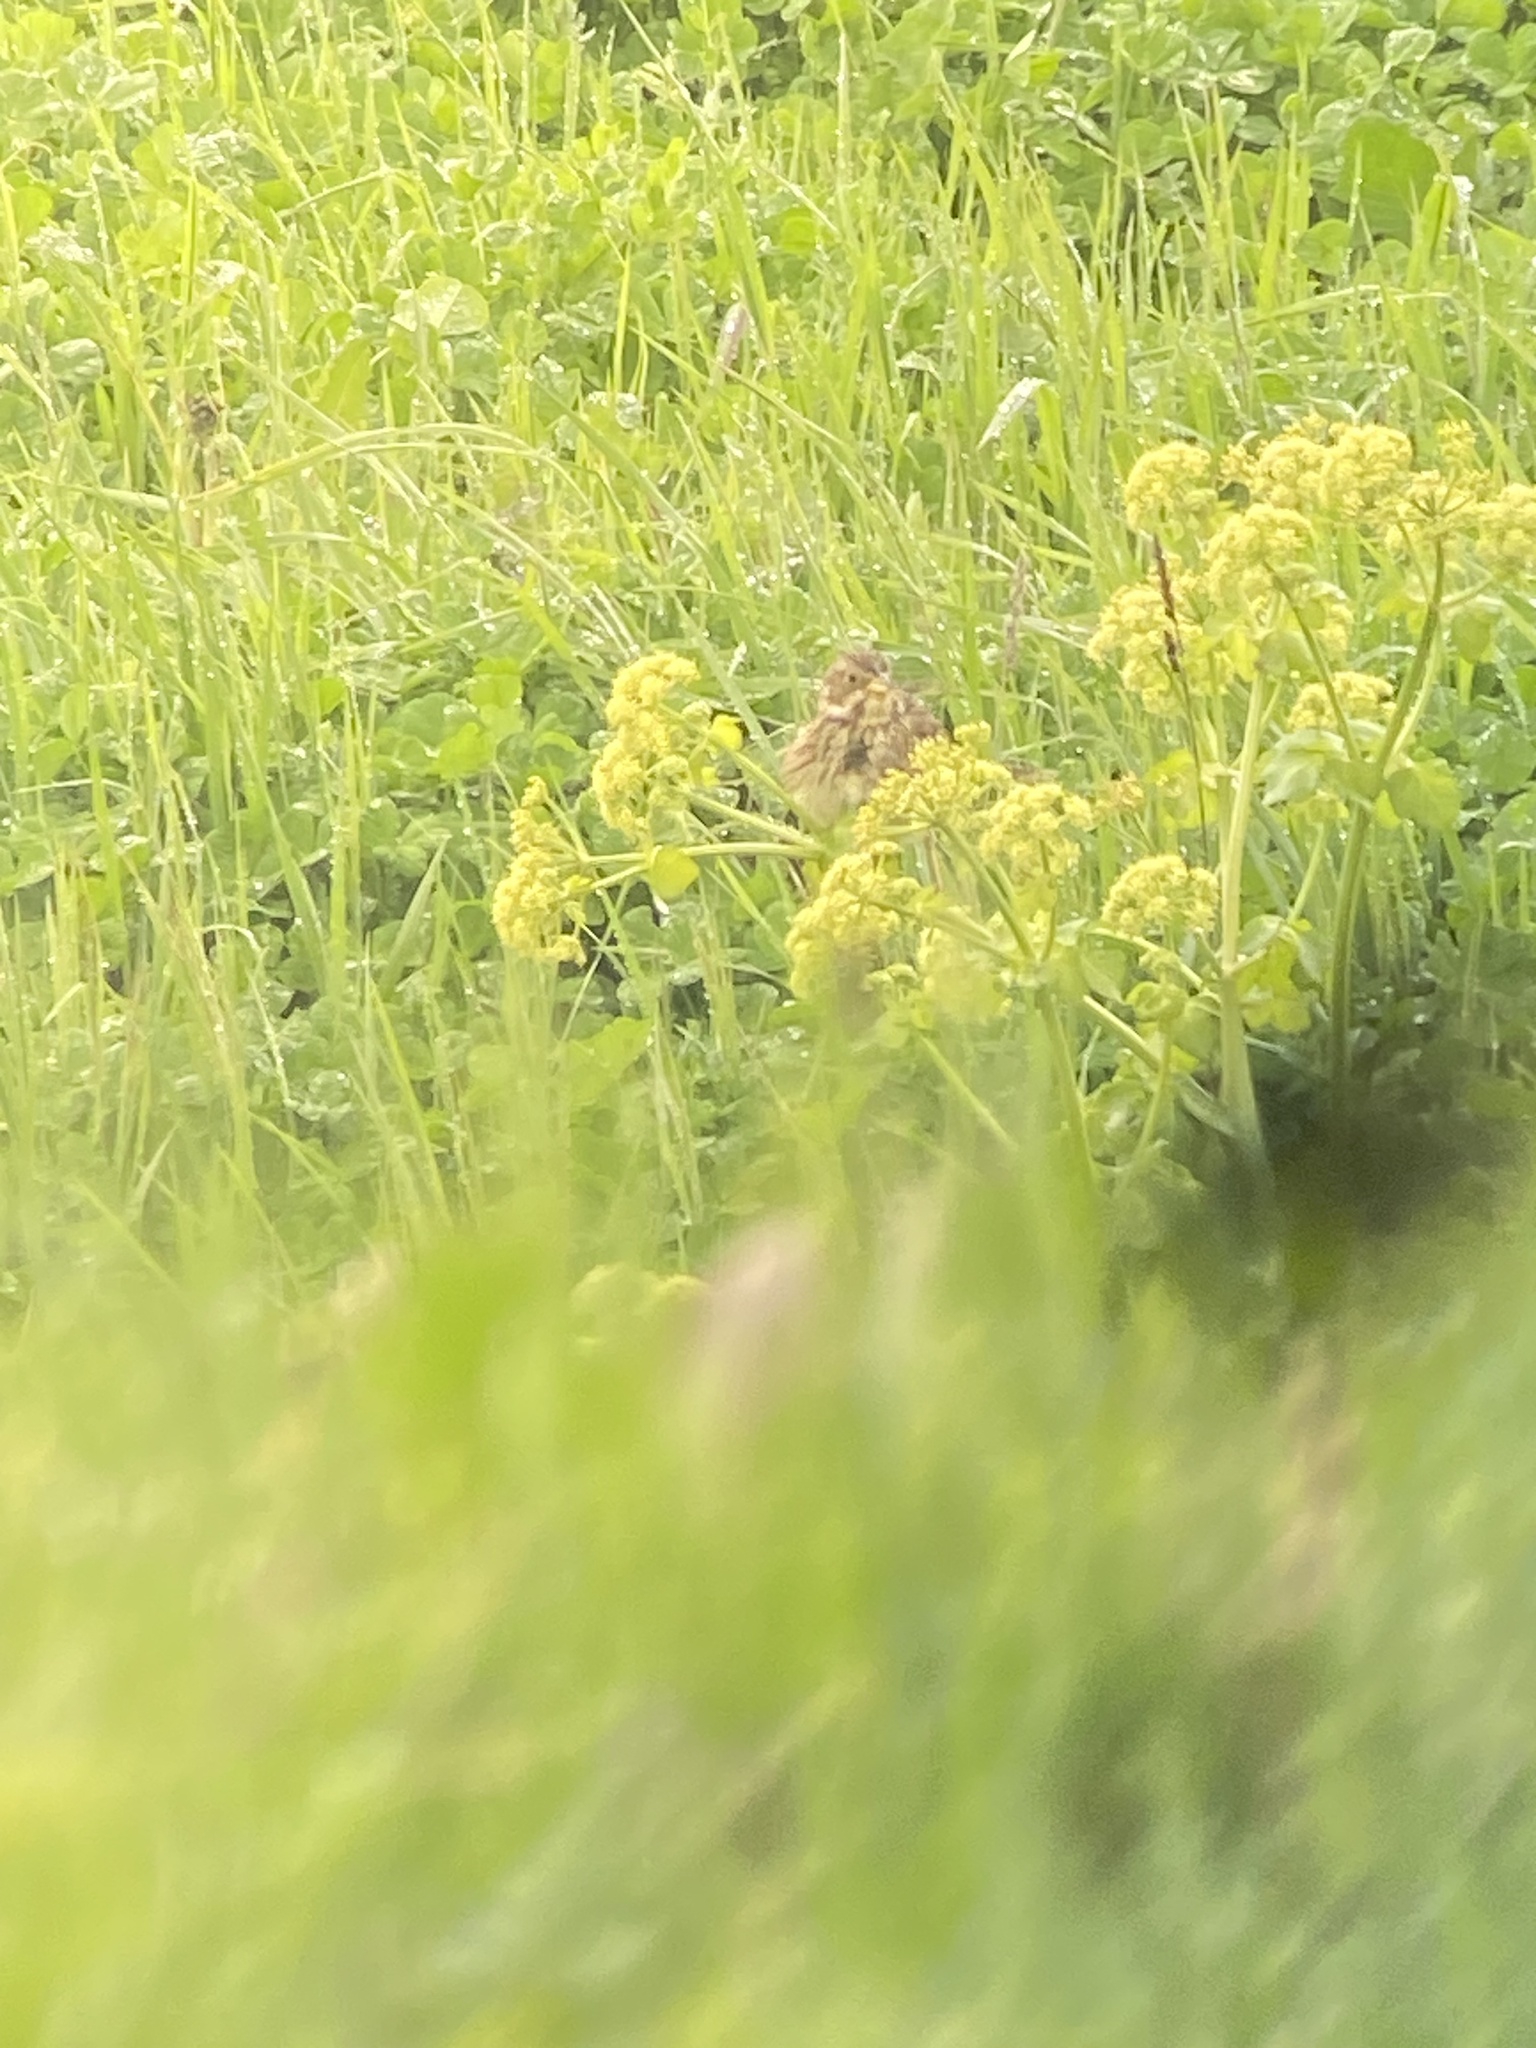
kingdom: Animalia
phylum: Chordata
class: Aves
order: Passeriformes
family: Emberizidae
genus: Emberiza
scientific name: Emberiza calandra
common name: Corn bunting
